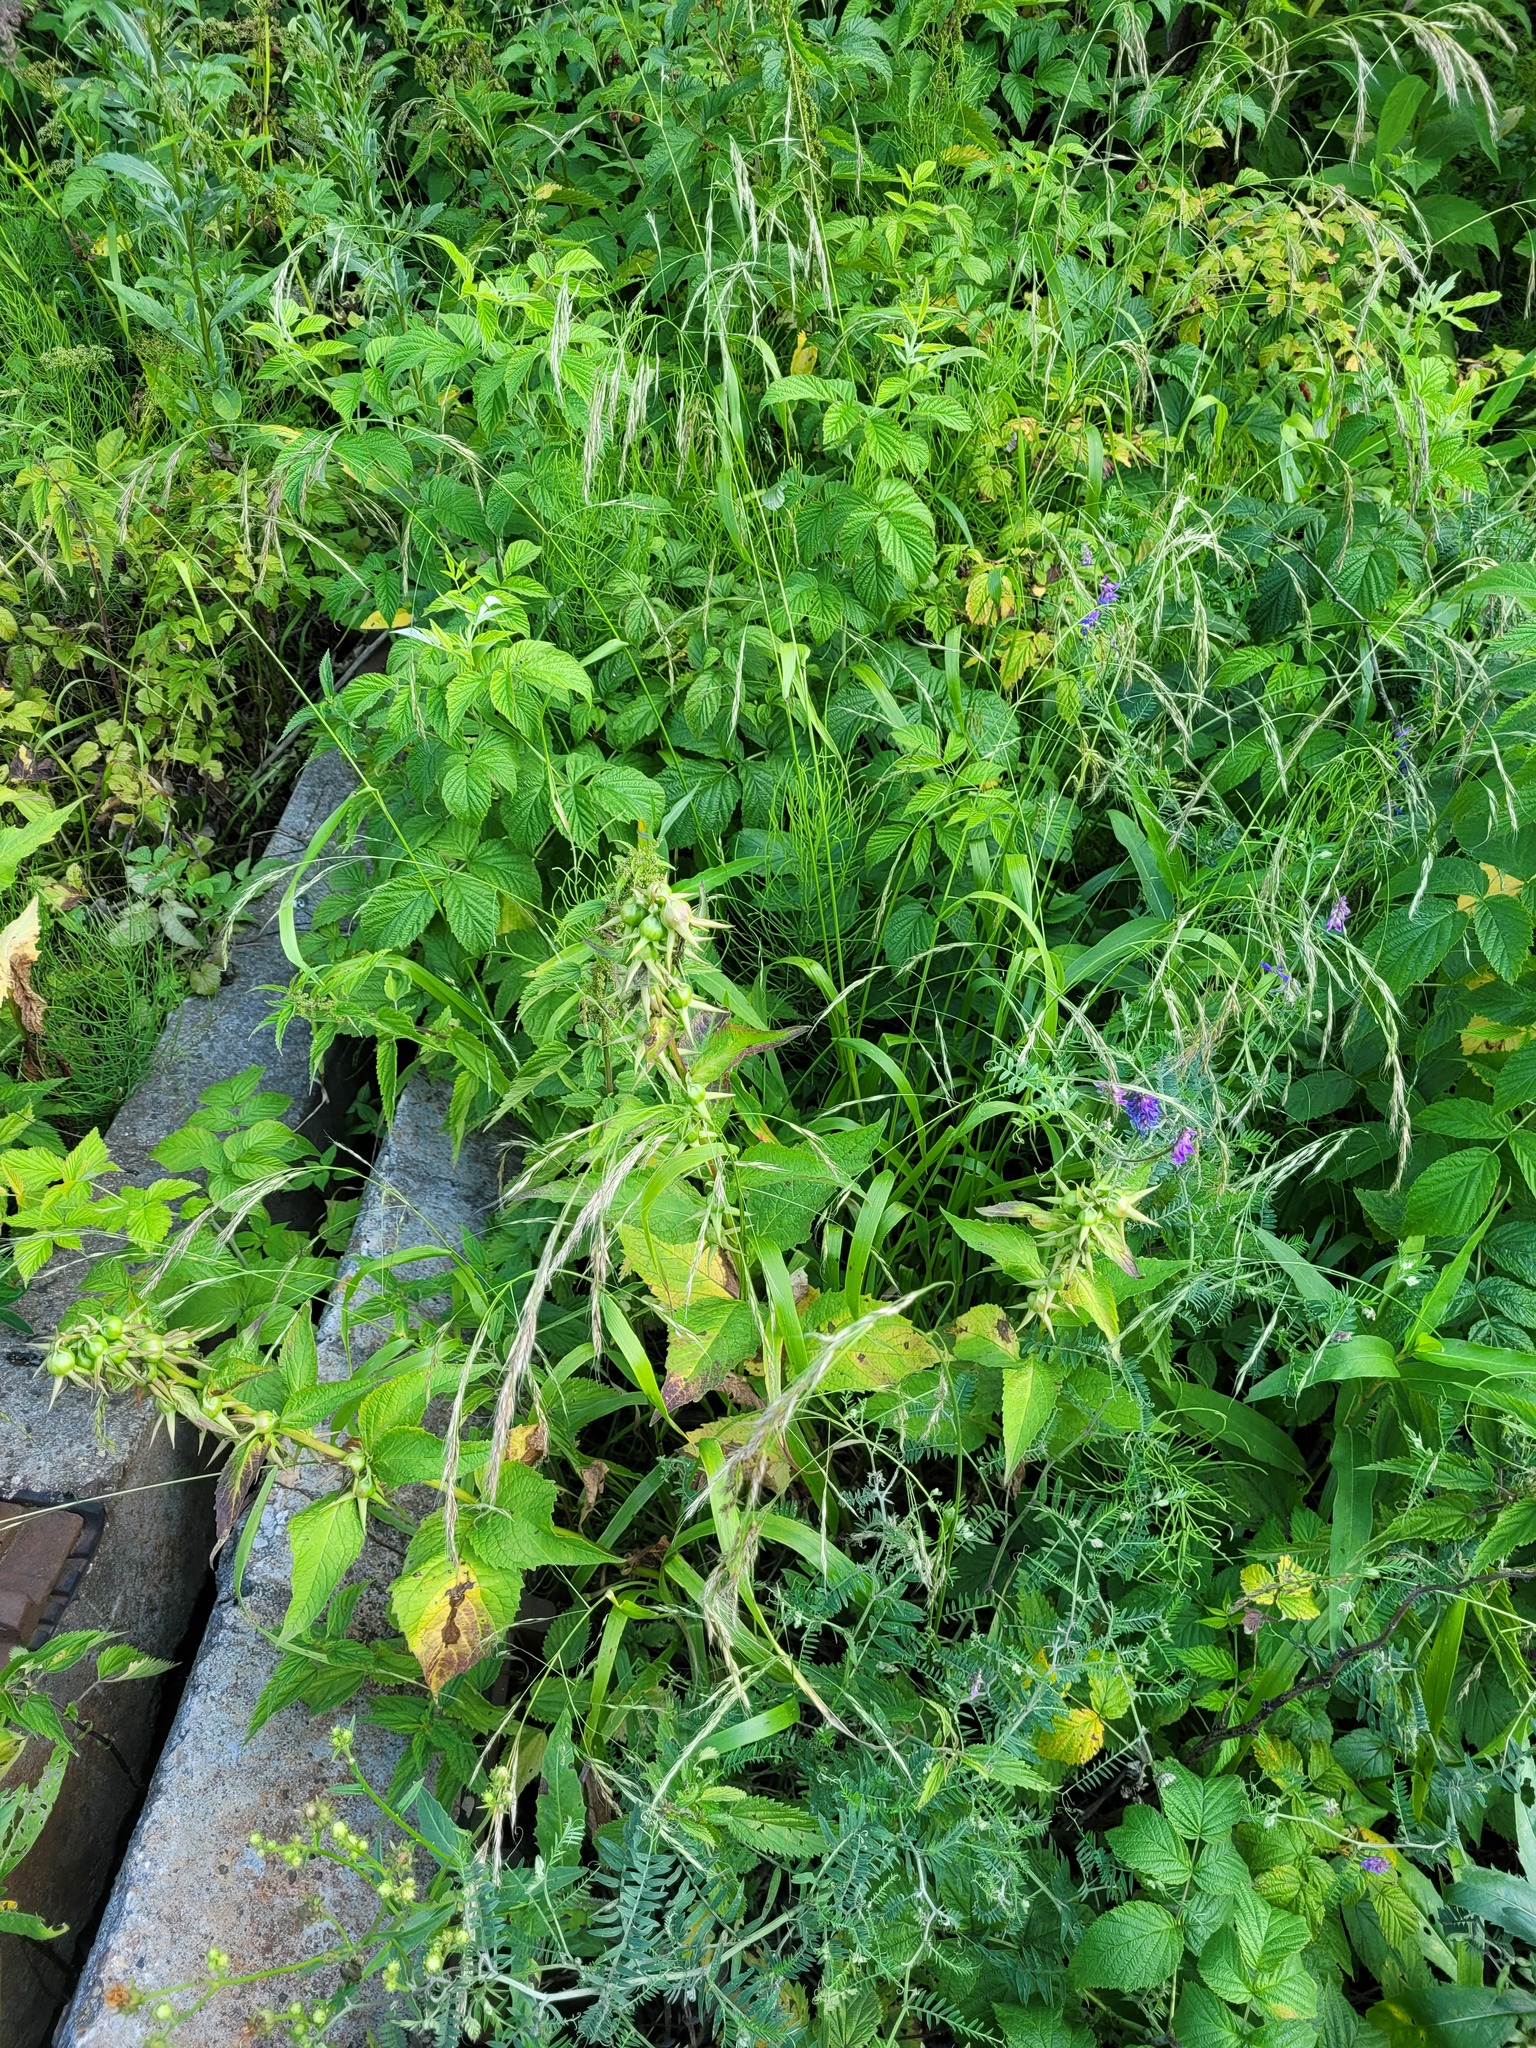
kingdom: Plantae
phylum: Tracheophyta
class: Magnoliopsida
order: Asterales
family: Campanulaceae
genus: Campanula
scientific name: Campanula latifolia
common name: Giant bellflower
